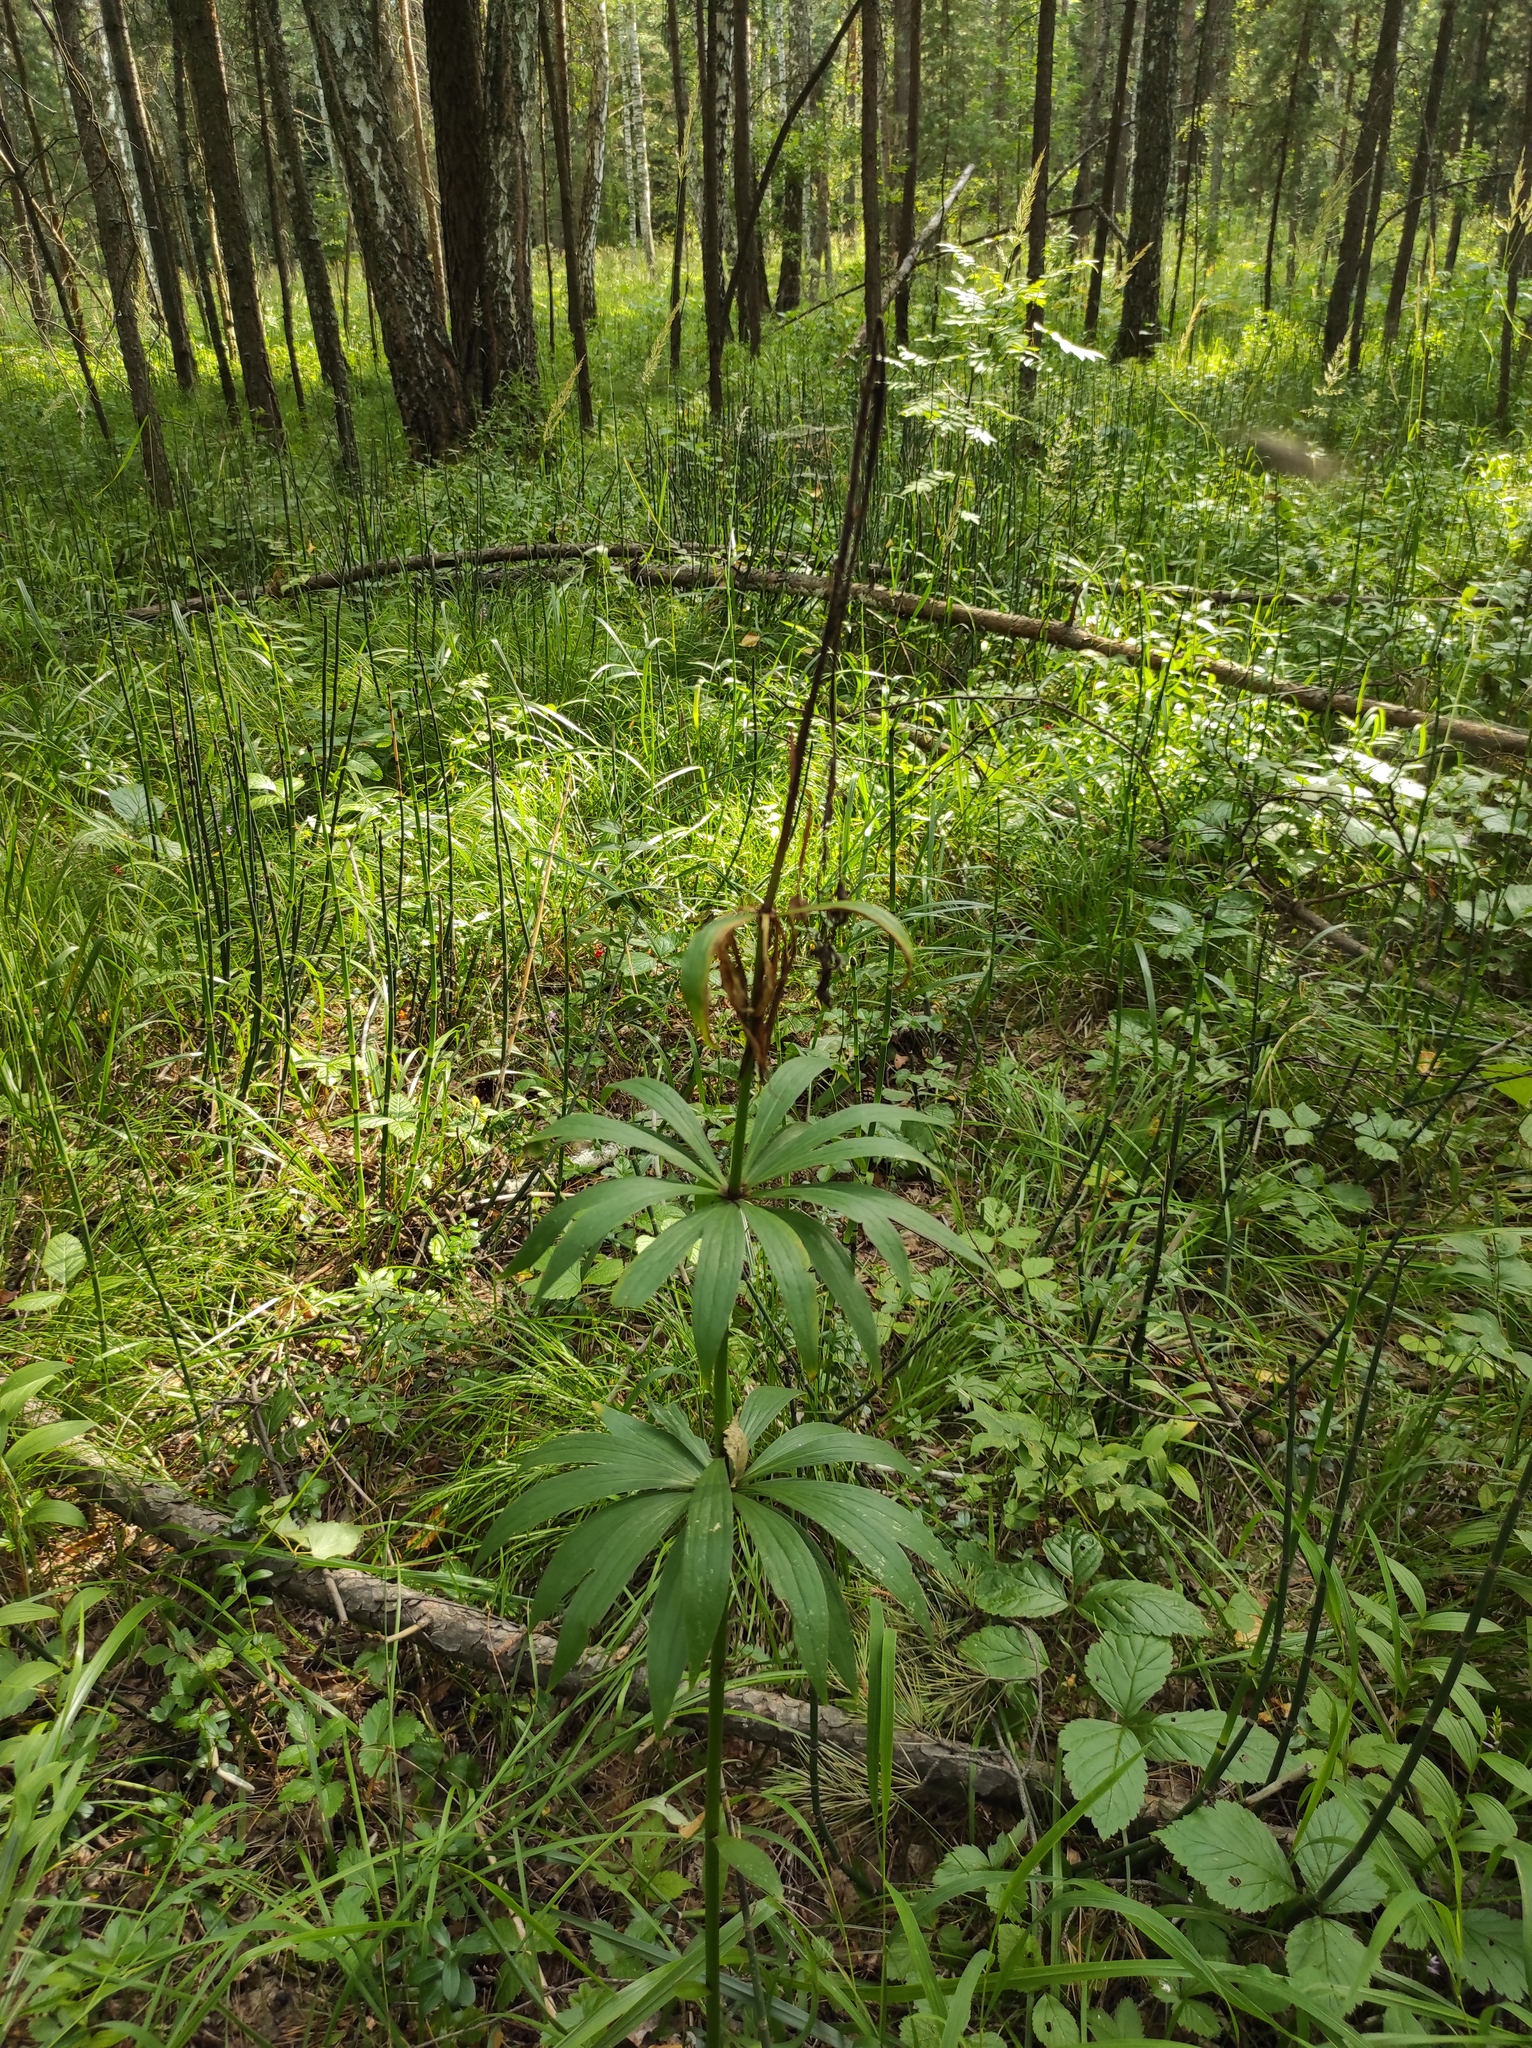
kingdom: Plantae
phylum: Tracheophyta
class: Liliopsida
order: Liliales
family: Liliaceae
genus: Lilium
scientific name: Lilium martagon
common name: Martagon lily
